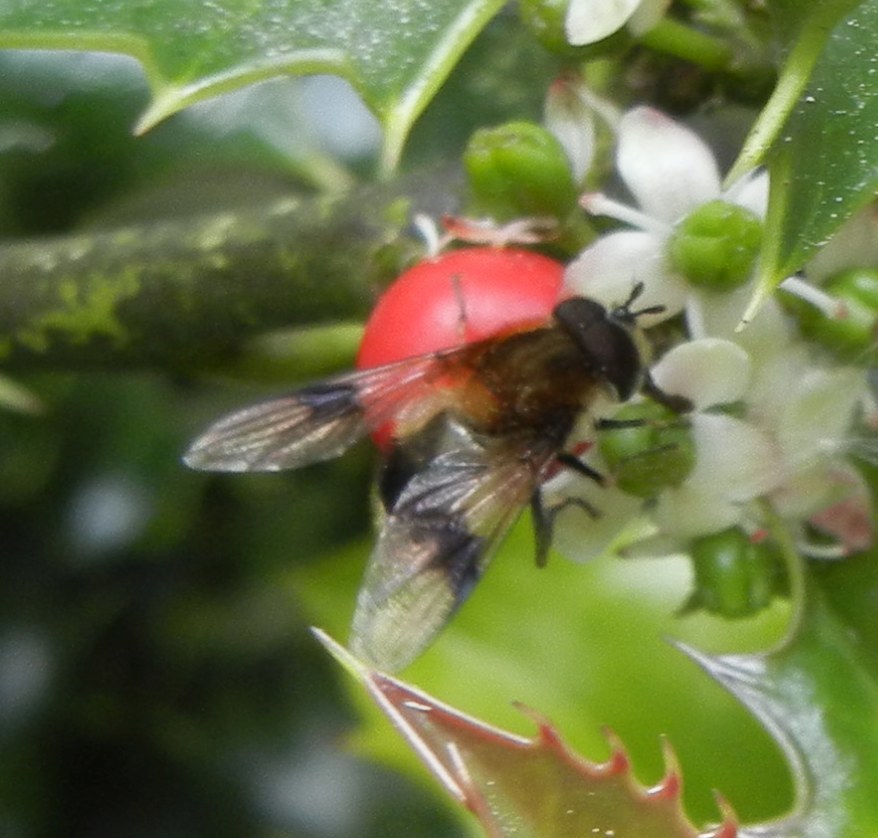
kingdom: Animalia
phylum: Arthropoda
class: Insecta
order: Diptera
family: Syrphidae
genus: Leucozona
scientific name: Leucozona lucorum
